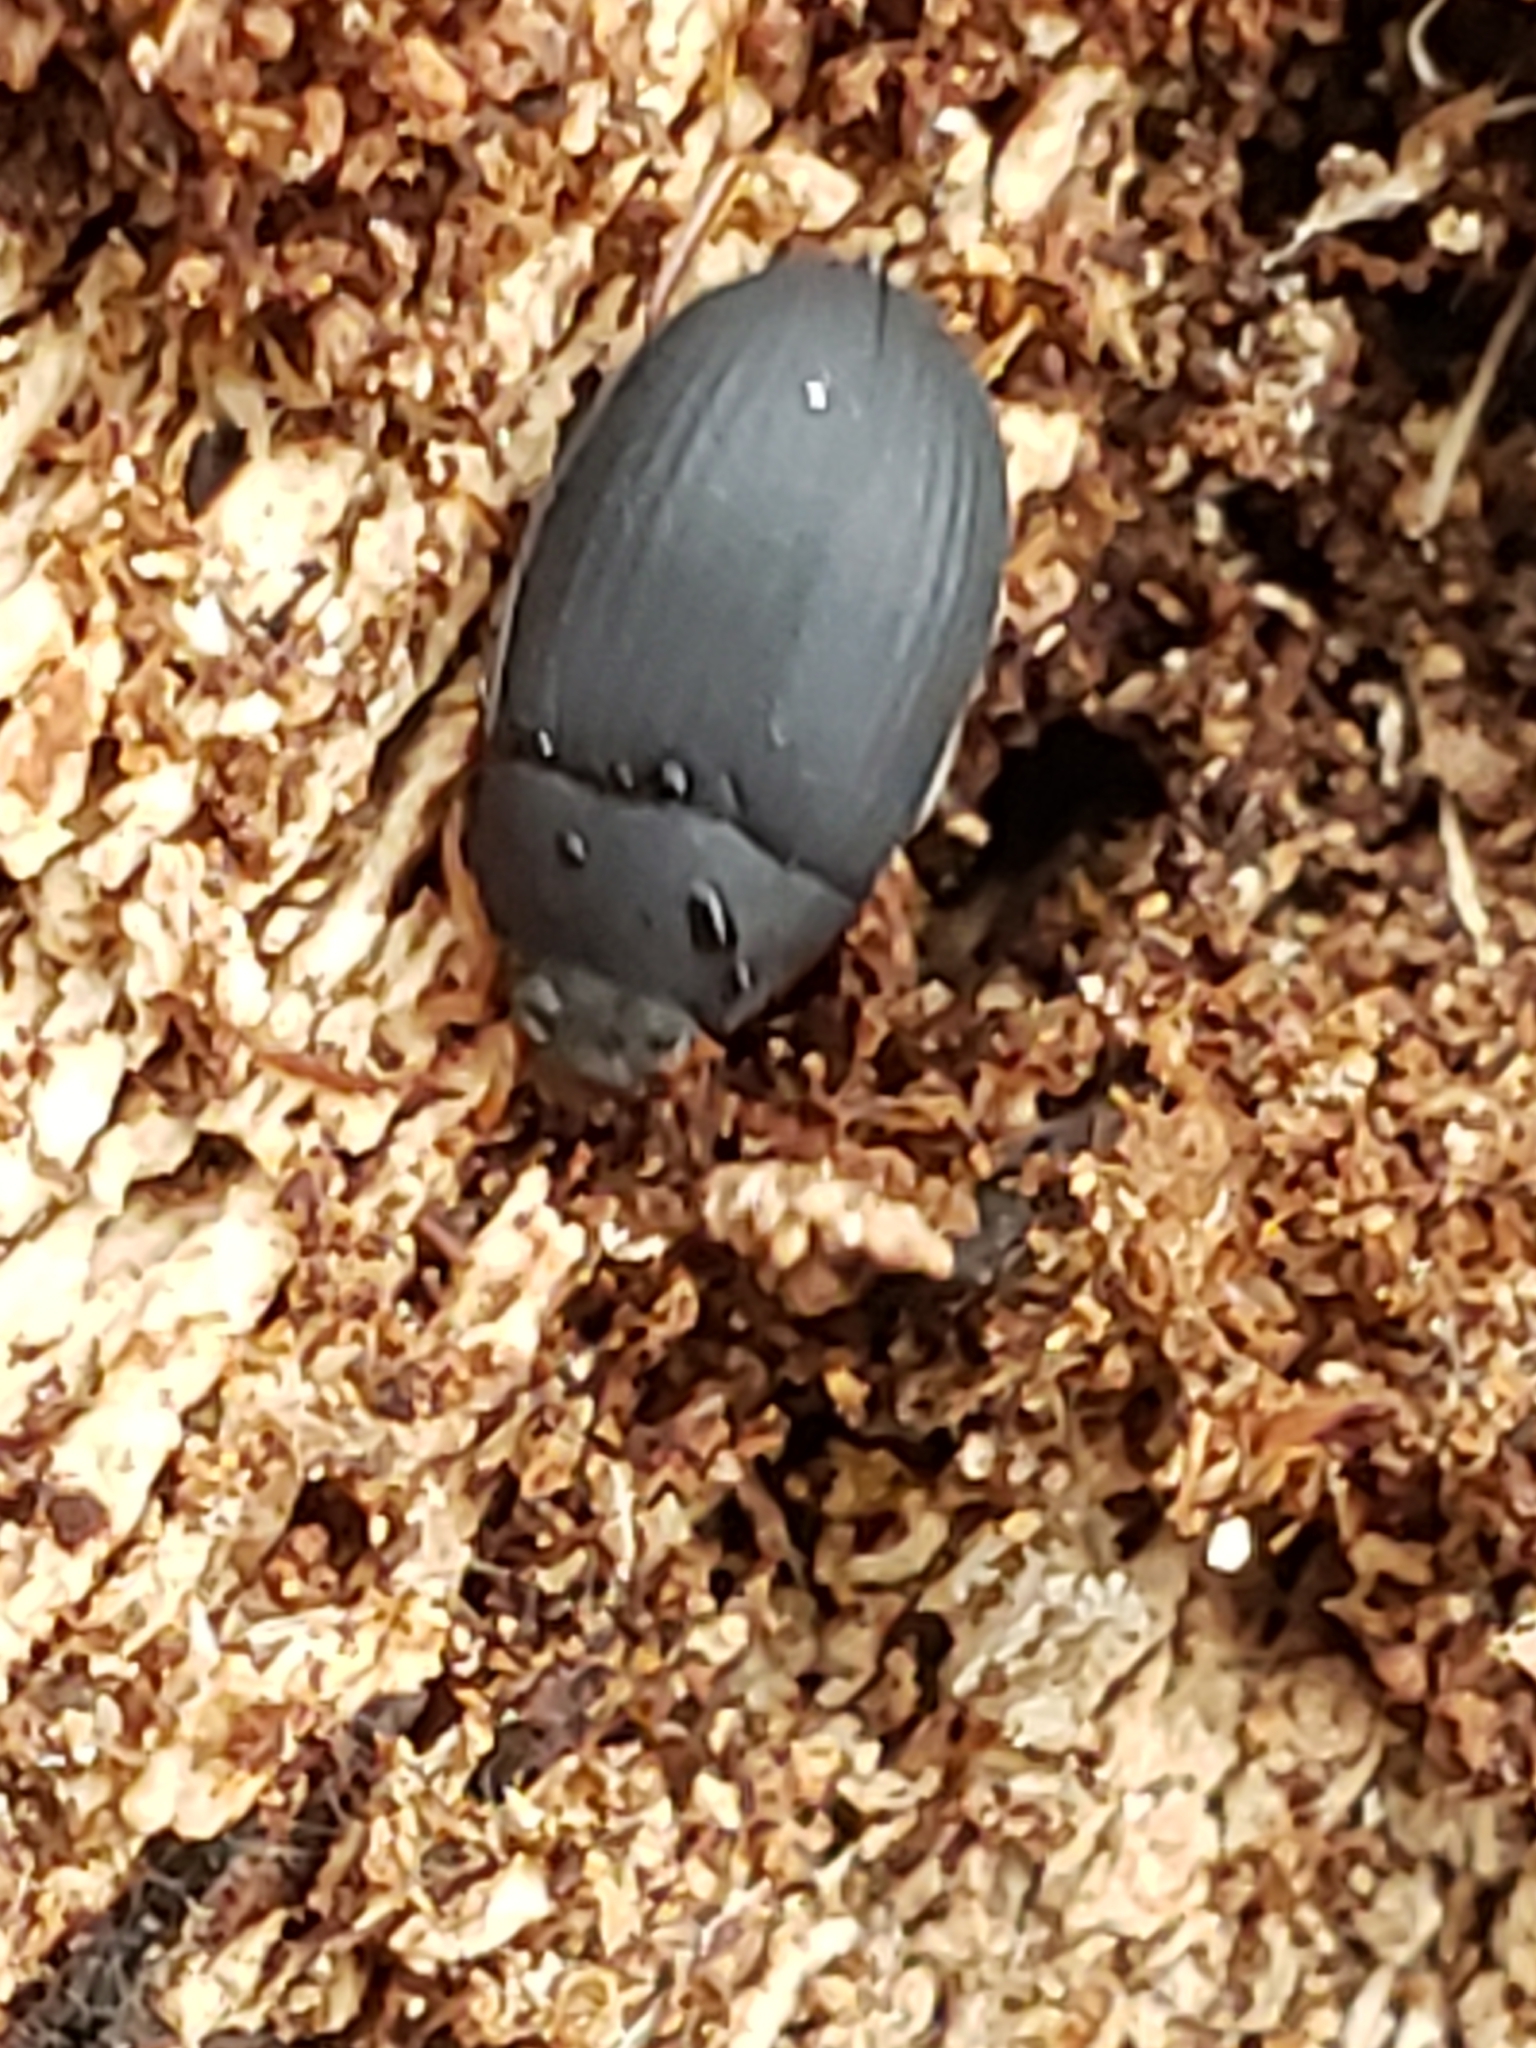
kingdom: Animalia
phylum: Arthropoda
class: Insecta
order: Coleoptera
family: Tenebrionidae
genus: Platydema
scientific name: Platydema ruficornis
